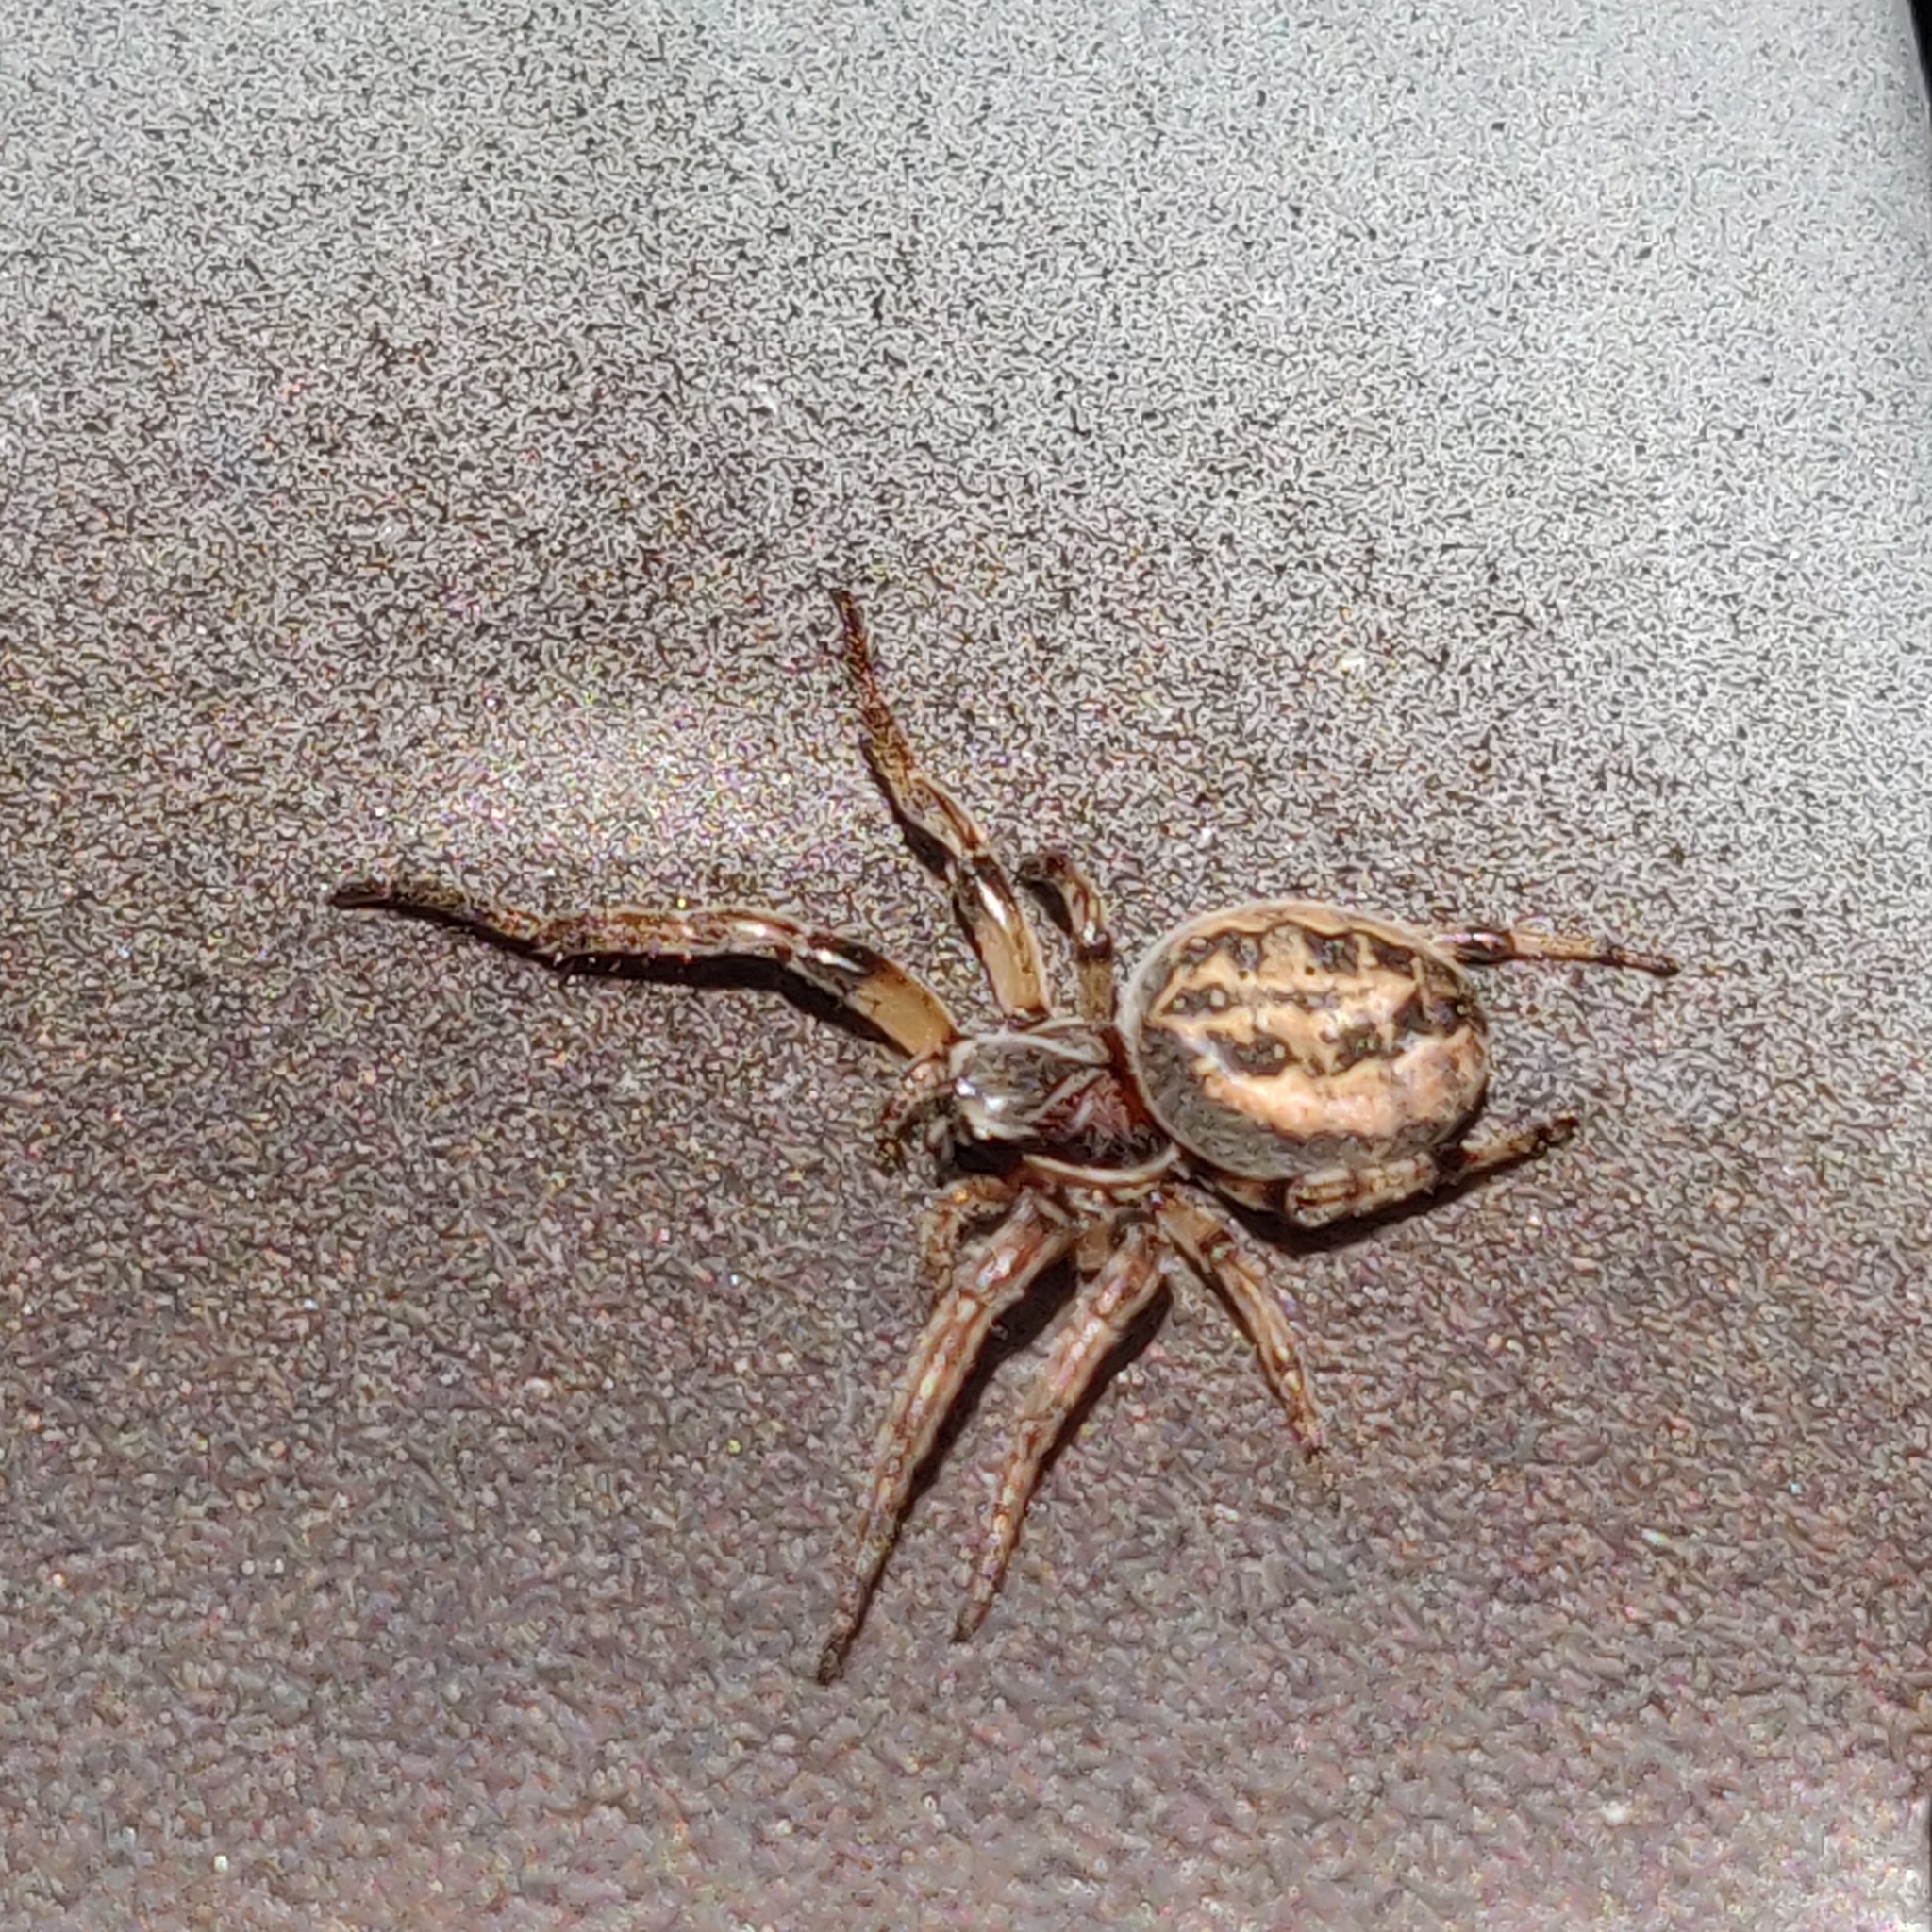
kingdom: Animalia
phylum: Arthropoda
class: Arachnida
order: Araneae
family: Araneidae
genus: Larinioides
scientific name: Larinioides cornutus
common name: Furrow orbweaver
